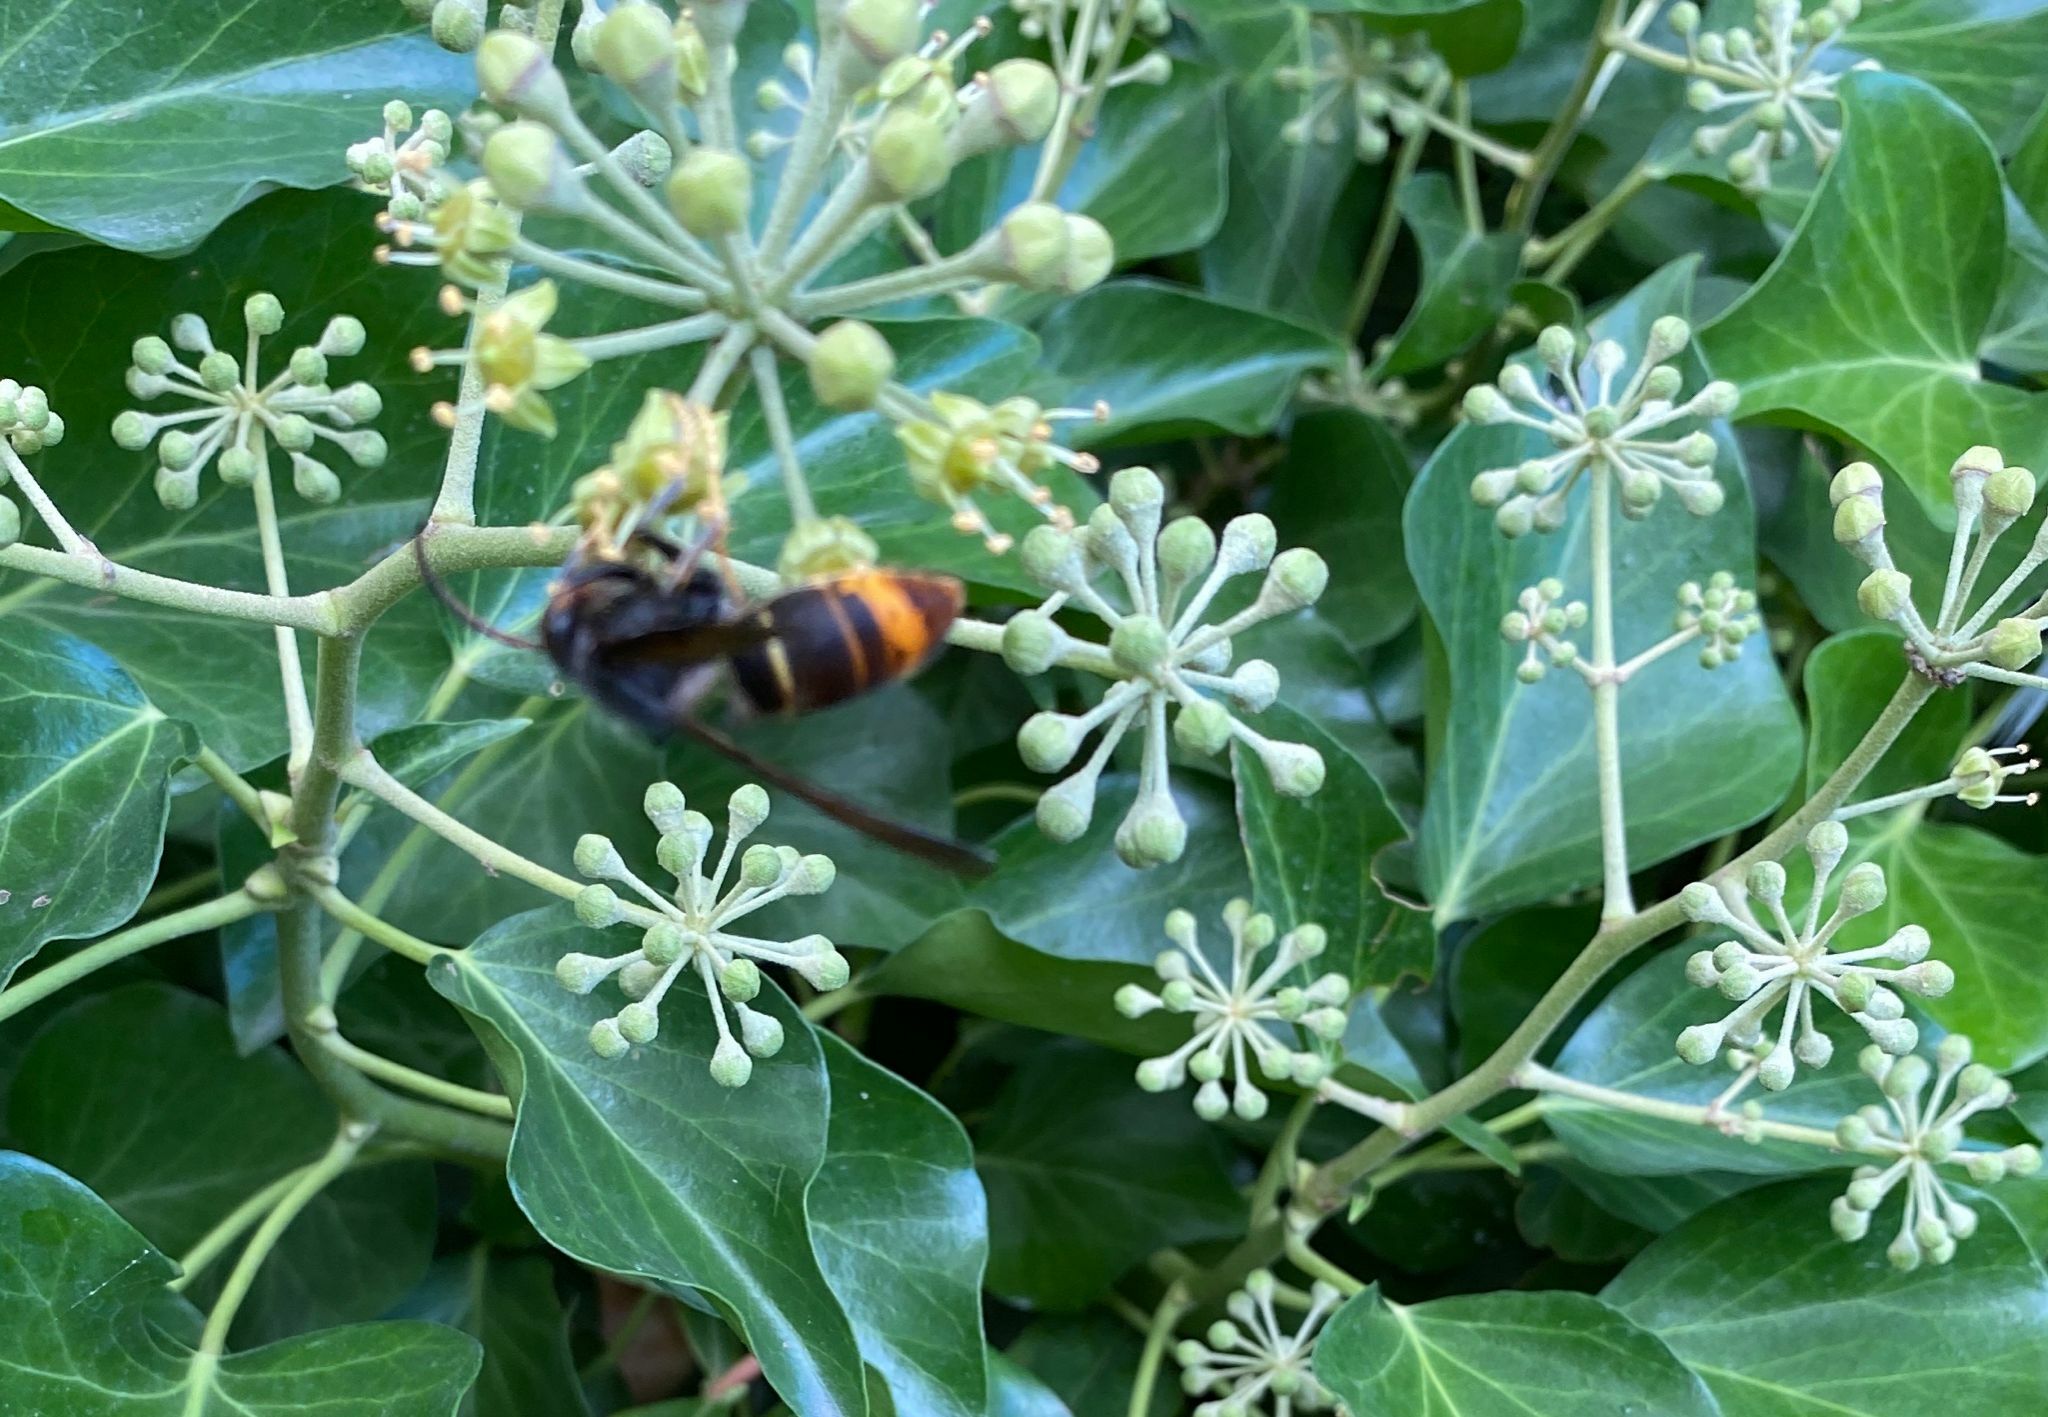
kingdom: Animalia
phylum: Arthropoda
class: Insecta
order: Hymenoptera
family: Vespidae
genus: Vespa
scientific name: Vespa velutina
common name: Asian hornet
